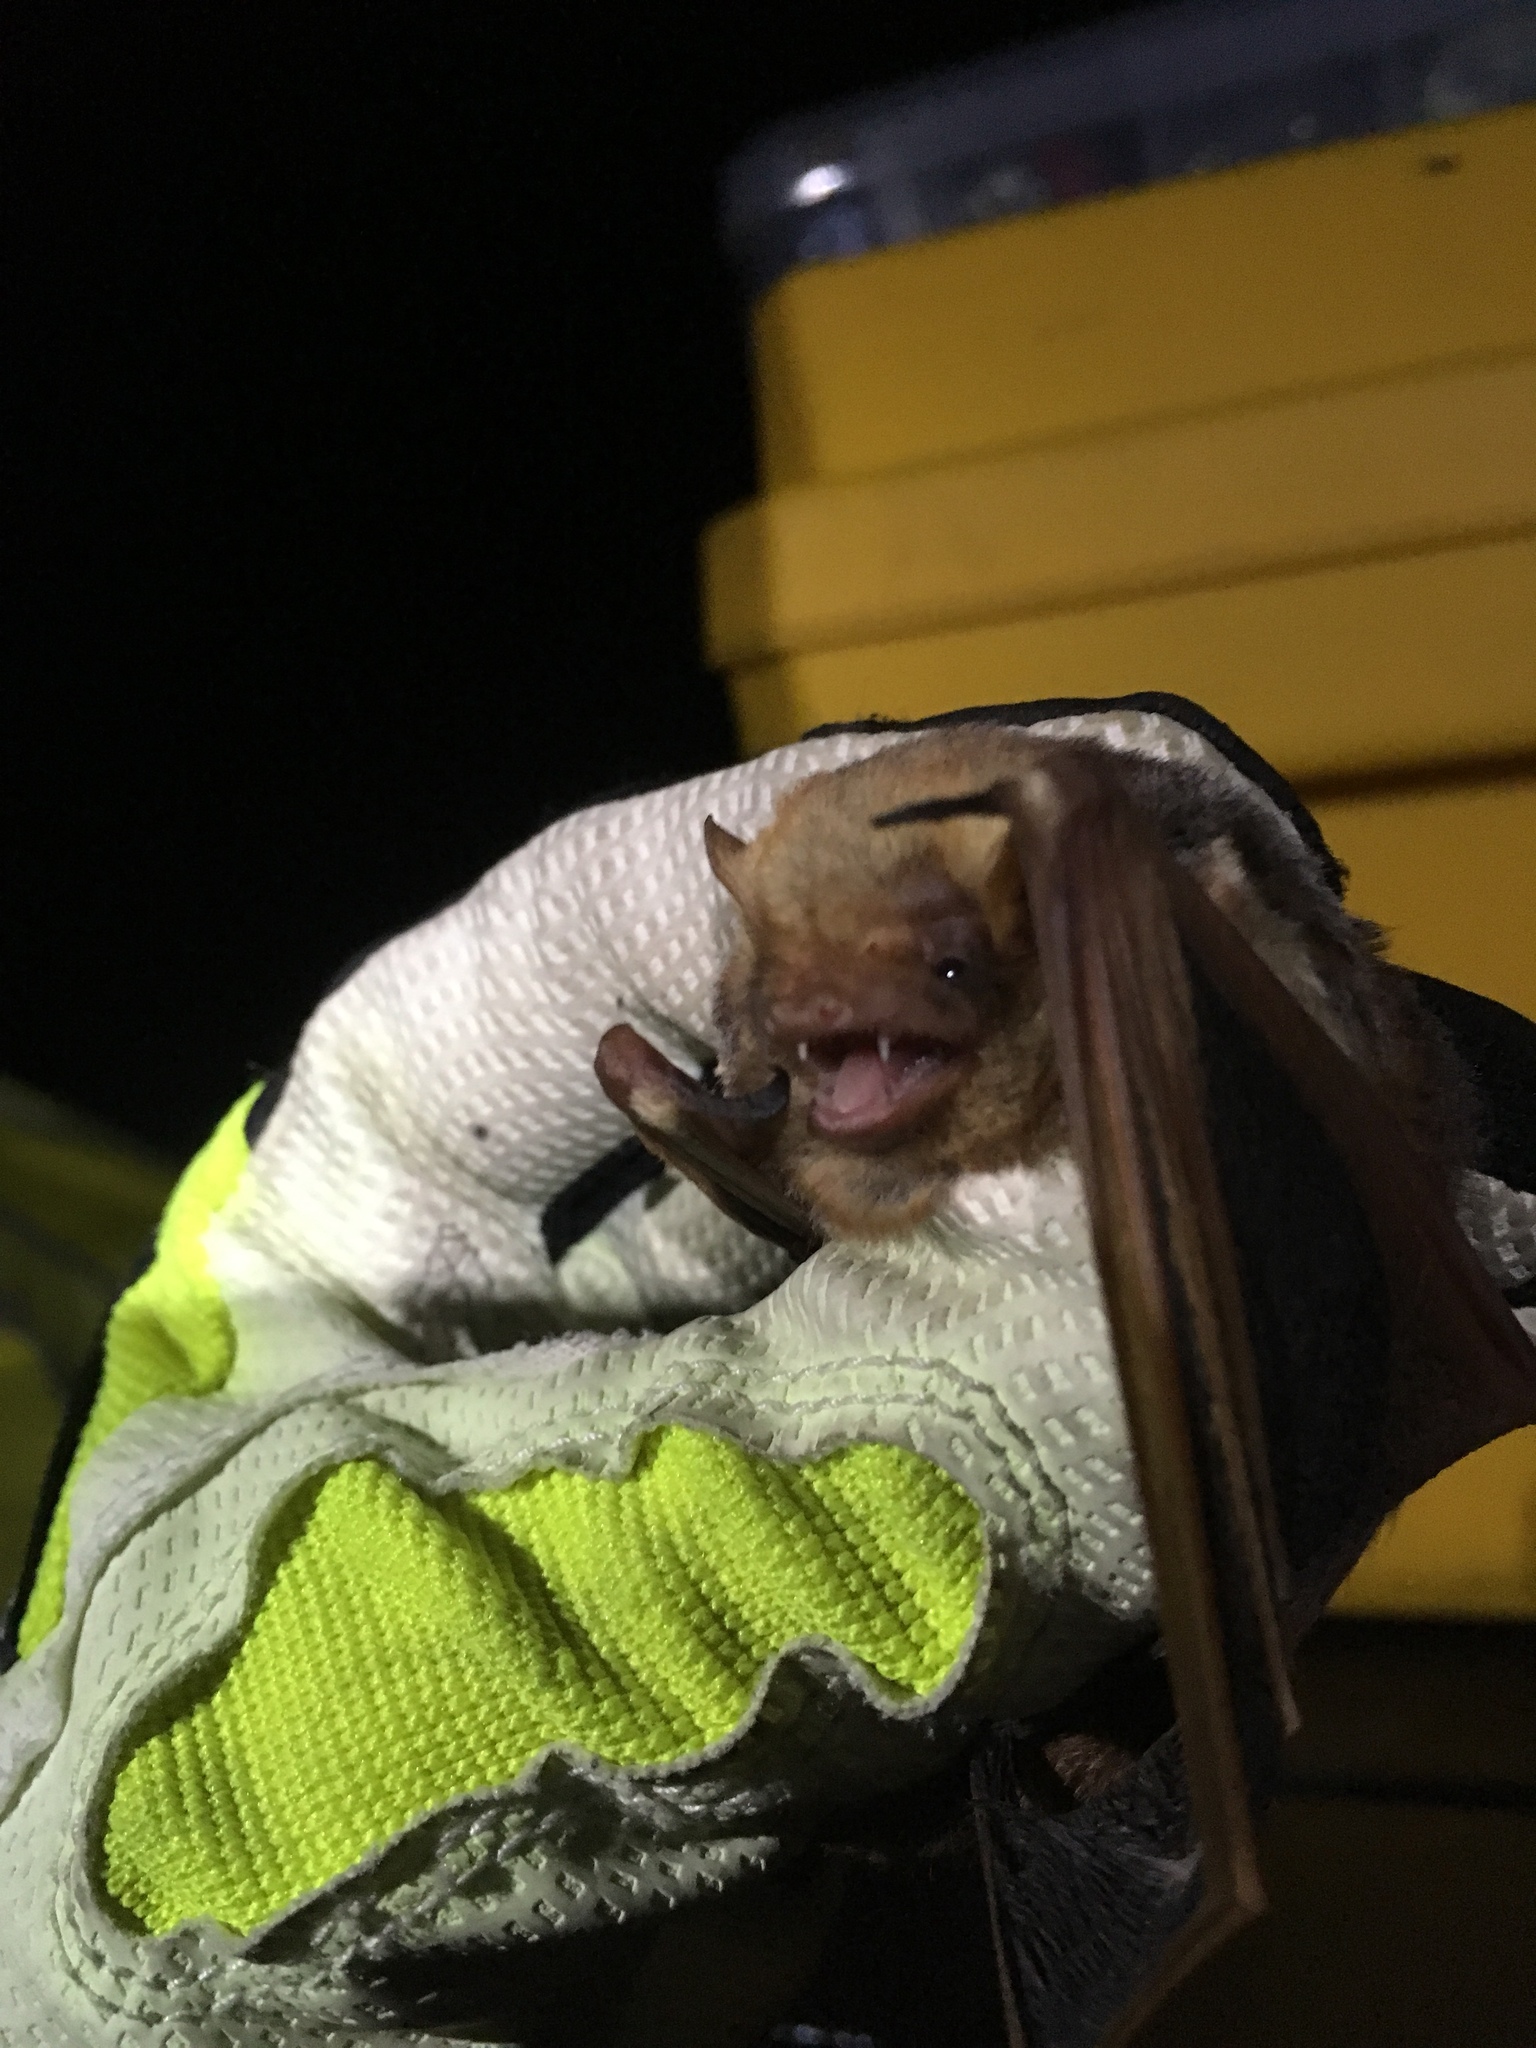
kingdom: Animalia
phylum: Chordata
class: Mammalia
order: Chiroptera
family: Vespertilionidae
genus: Lasiurus
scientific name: Lasiurus seminolus
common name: Seminole bat
